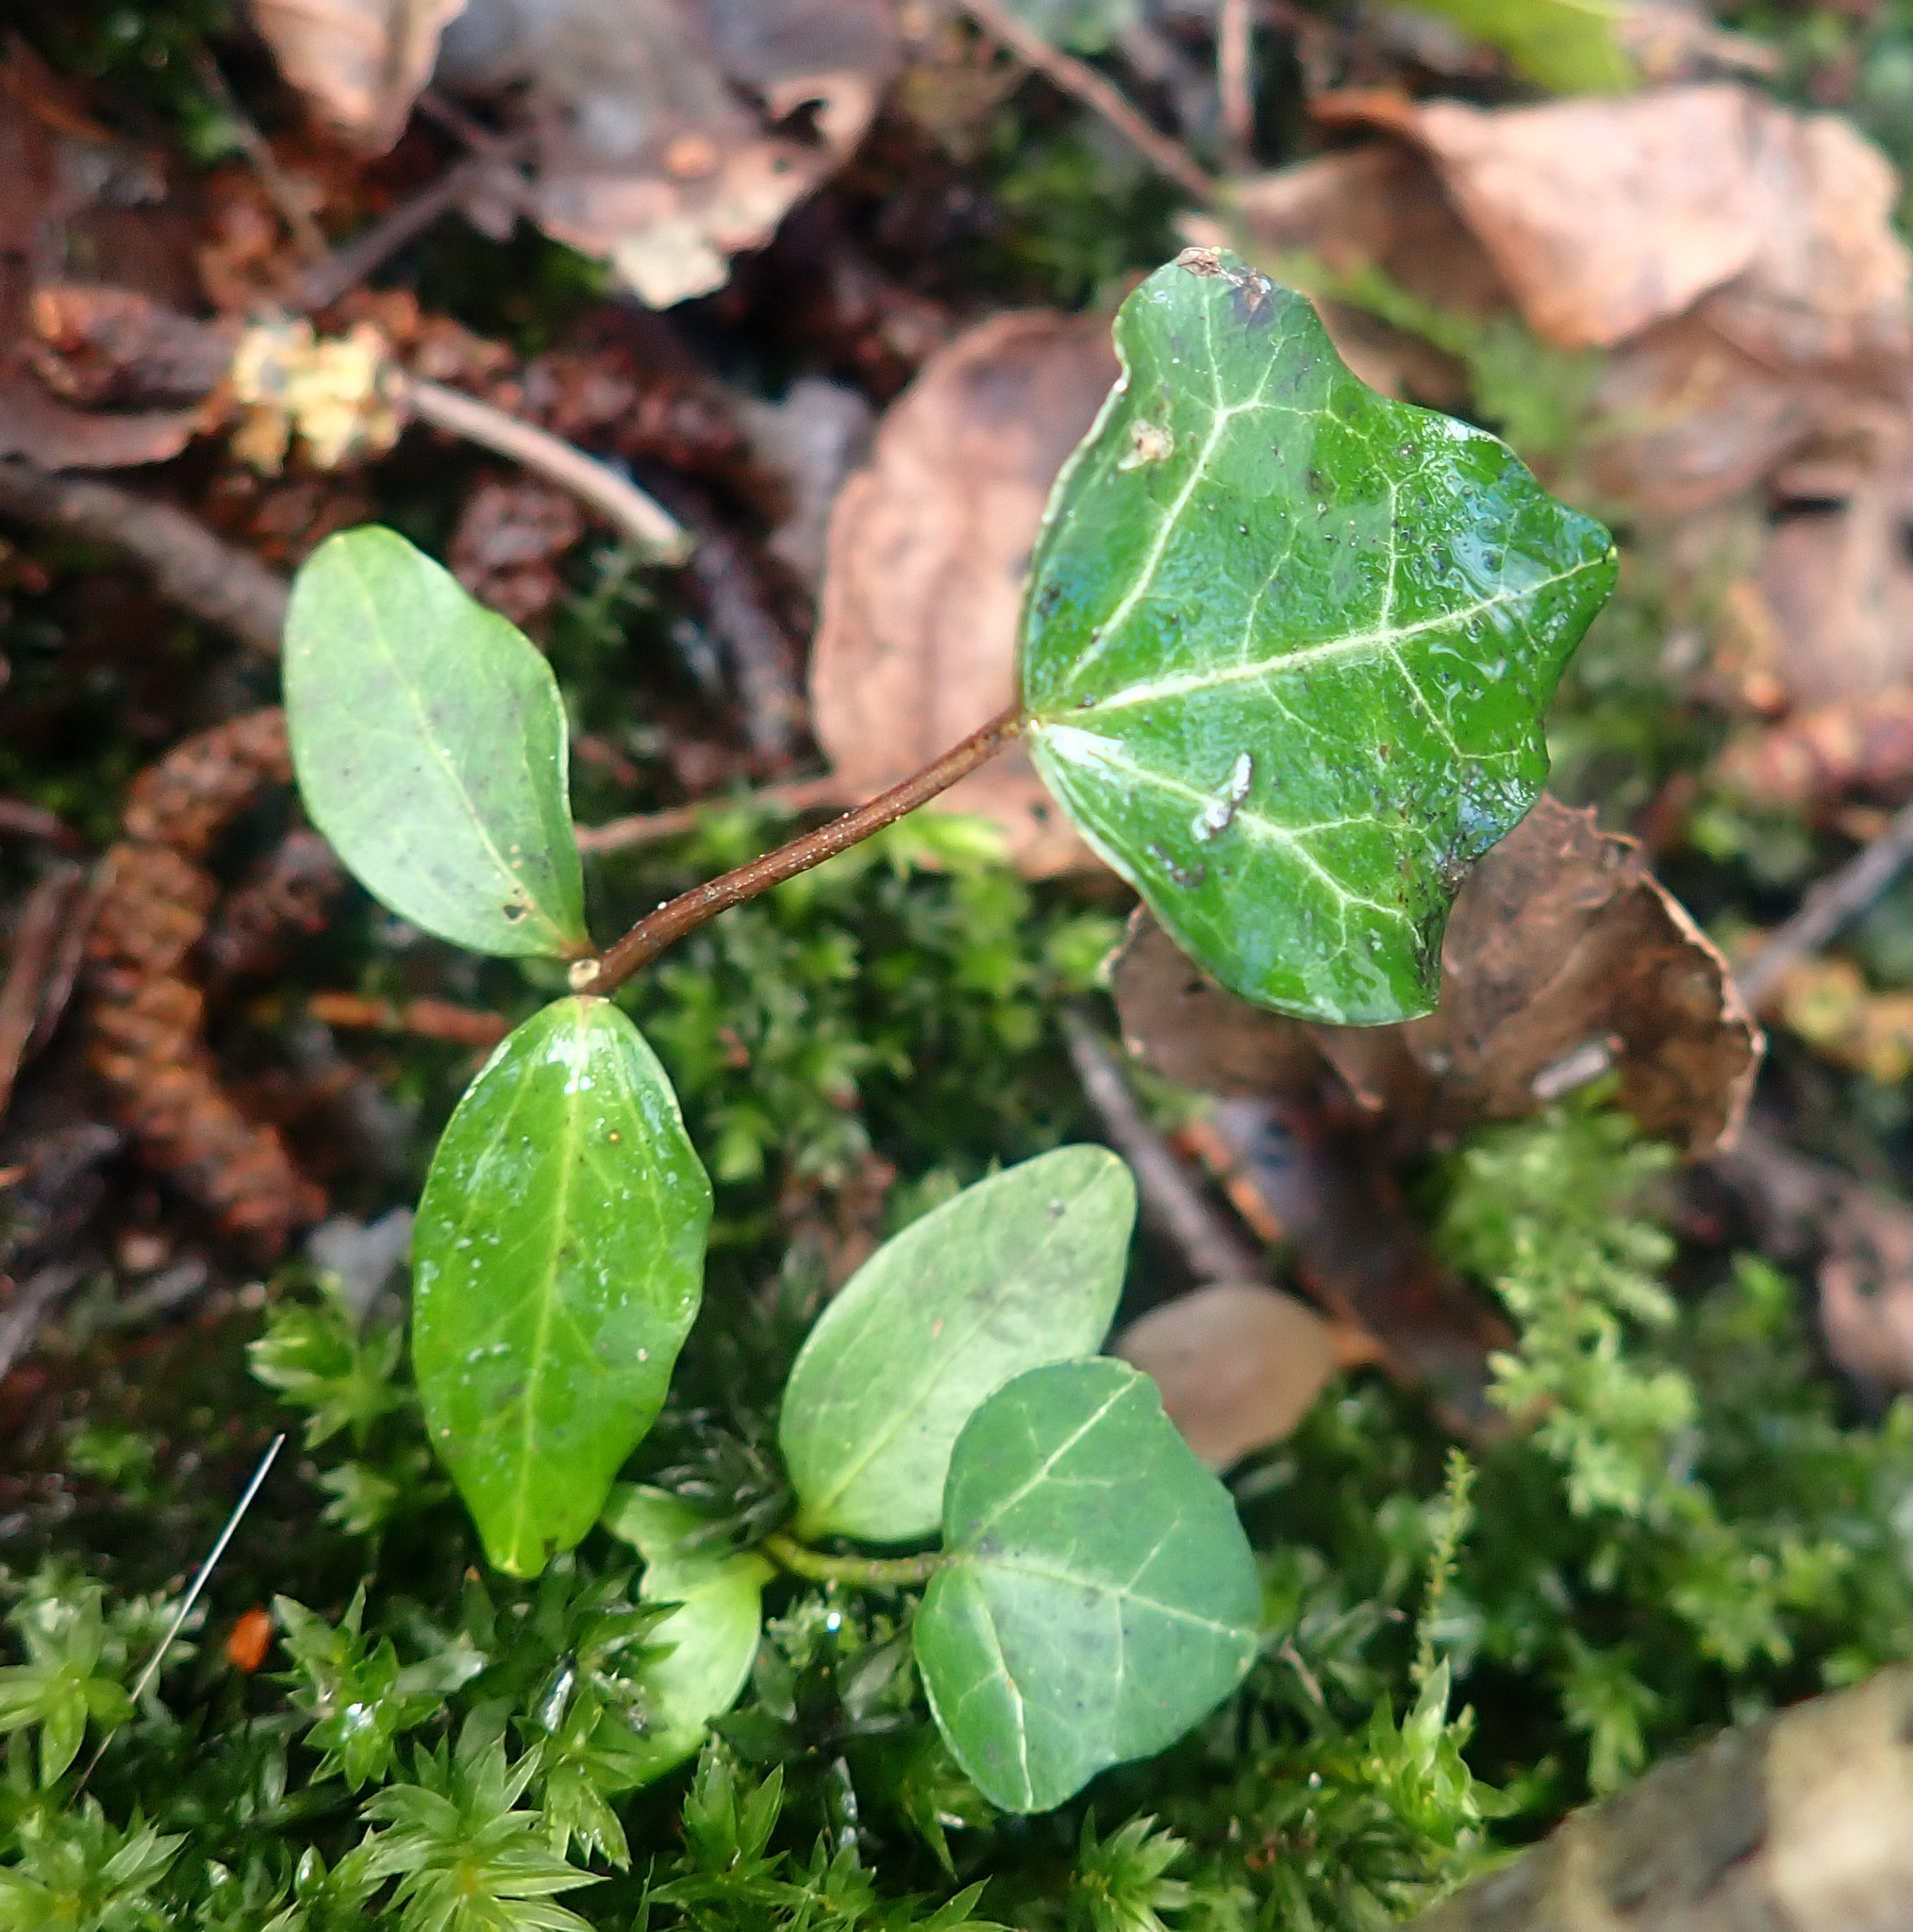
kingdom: Plantae
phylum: Tracheophyta
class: Magnoliopsida
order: Apiales
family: Araliaceae
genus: Hedera
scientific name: Hedera helix
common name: Ivy
